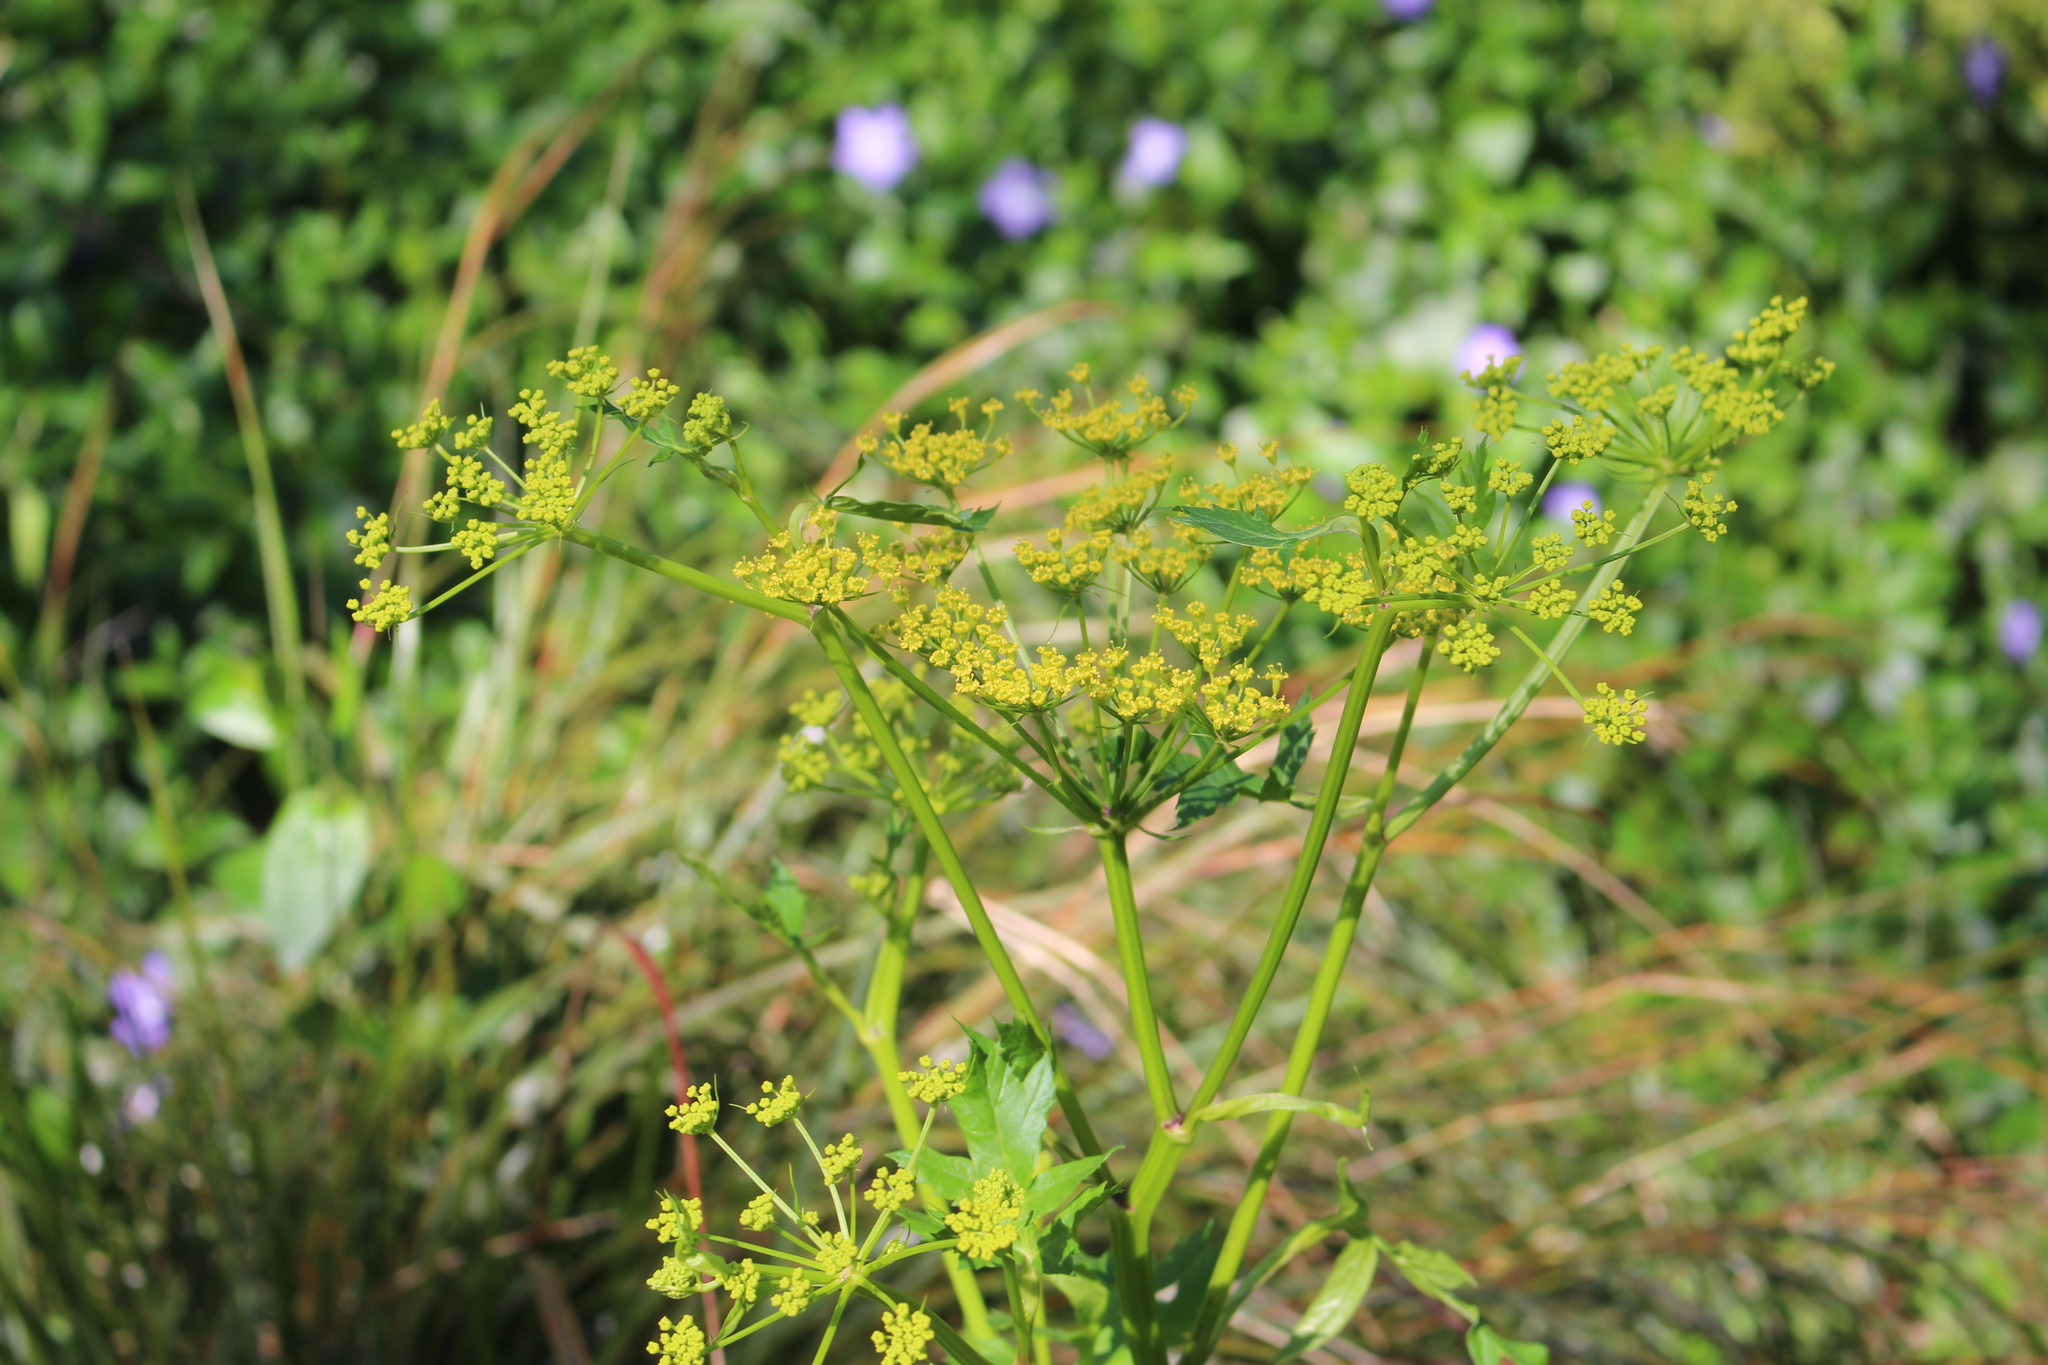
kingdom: Plantae
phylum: Tracheophyta
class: Magnoliopsida
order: Apiales
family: Apiaceae
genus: Pastinaca
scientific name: Pastinaca sativa
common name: Wild parsnip
